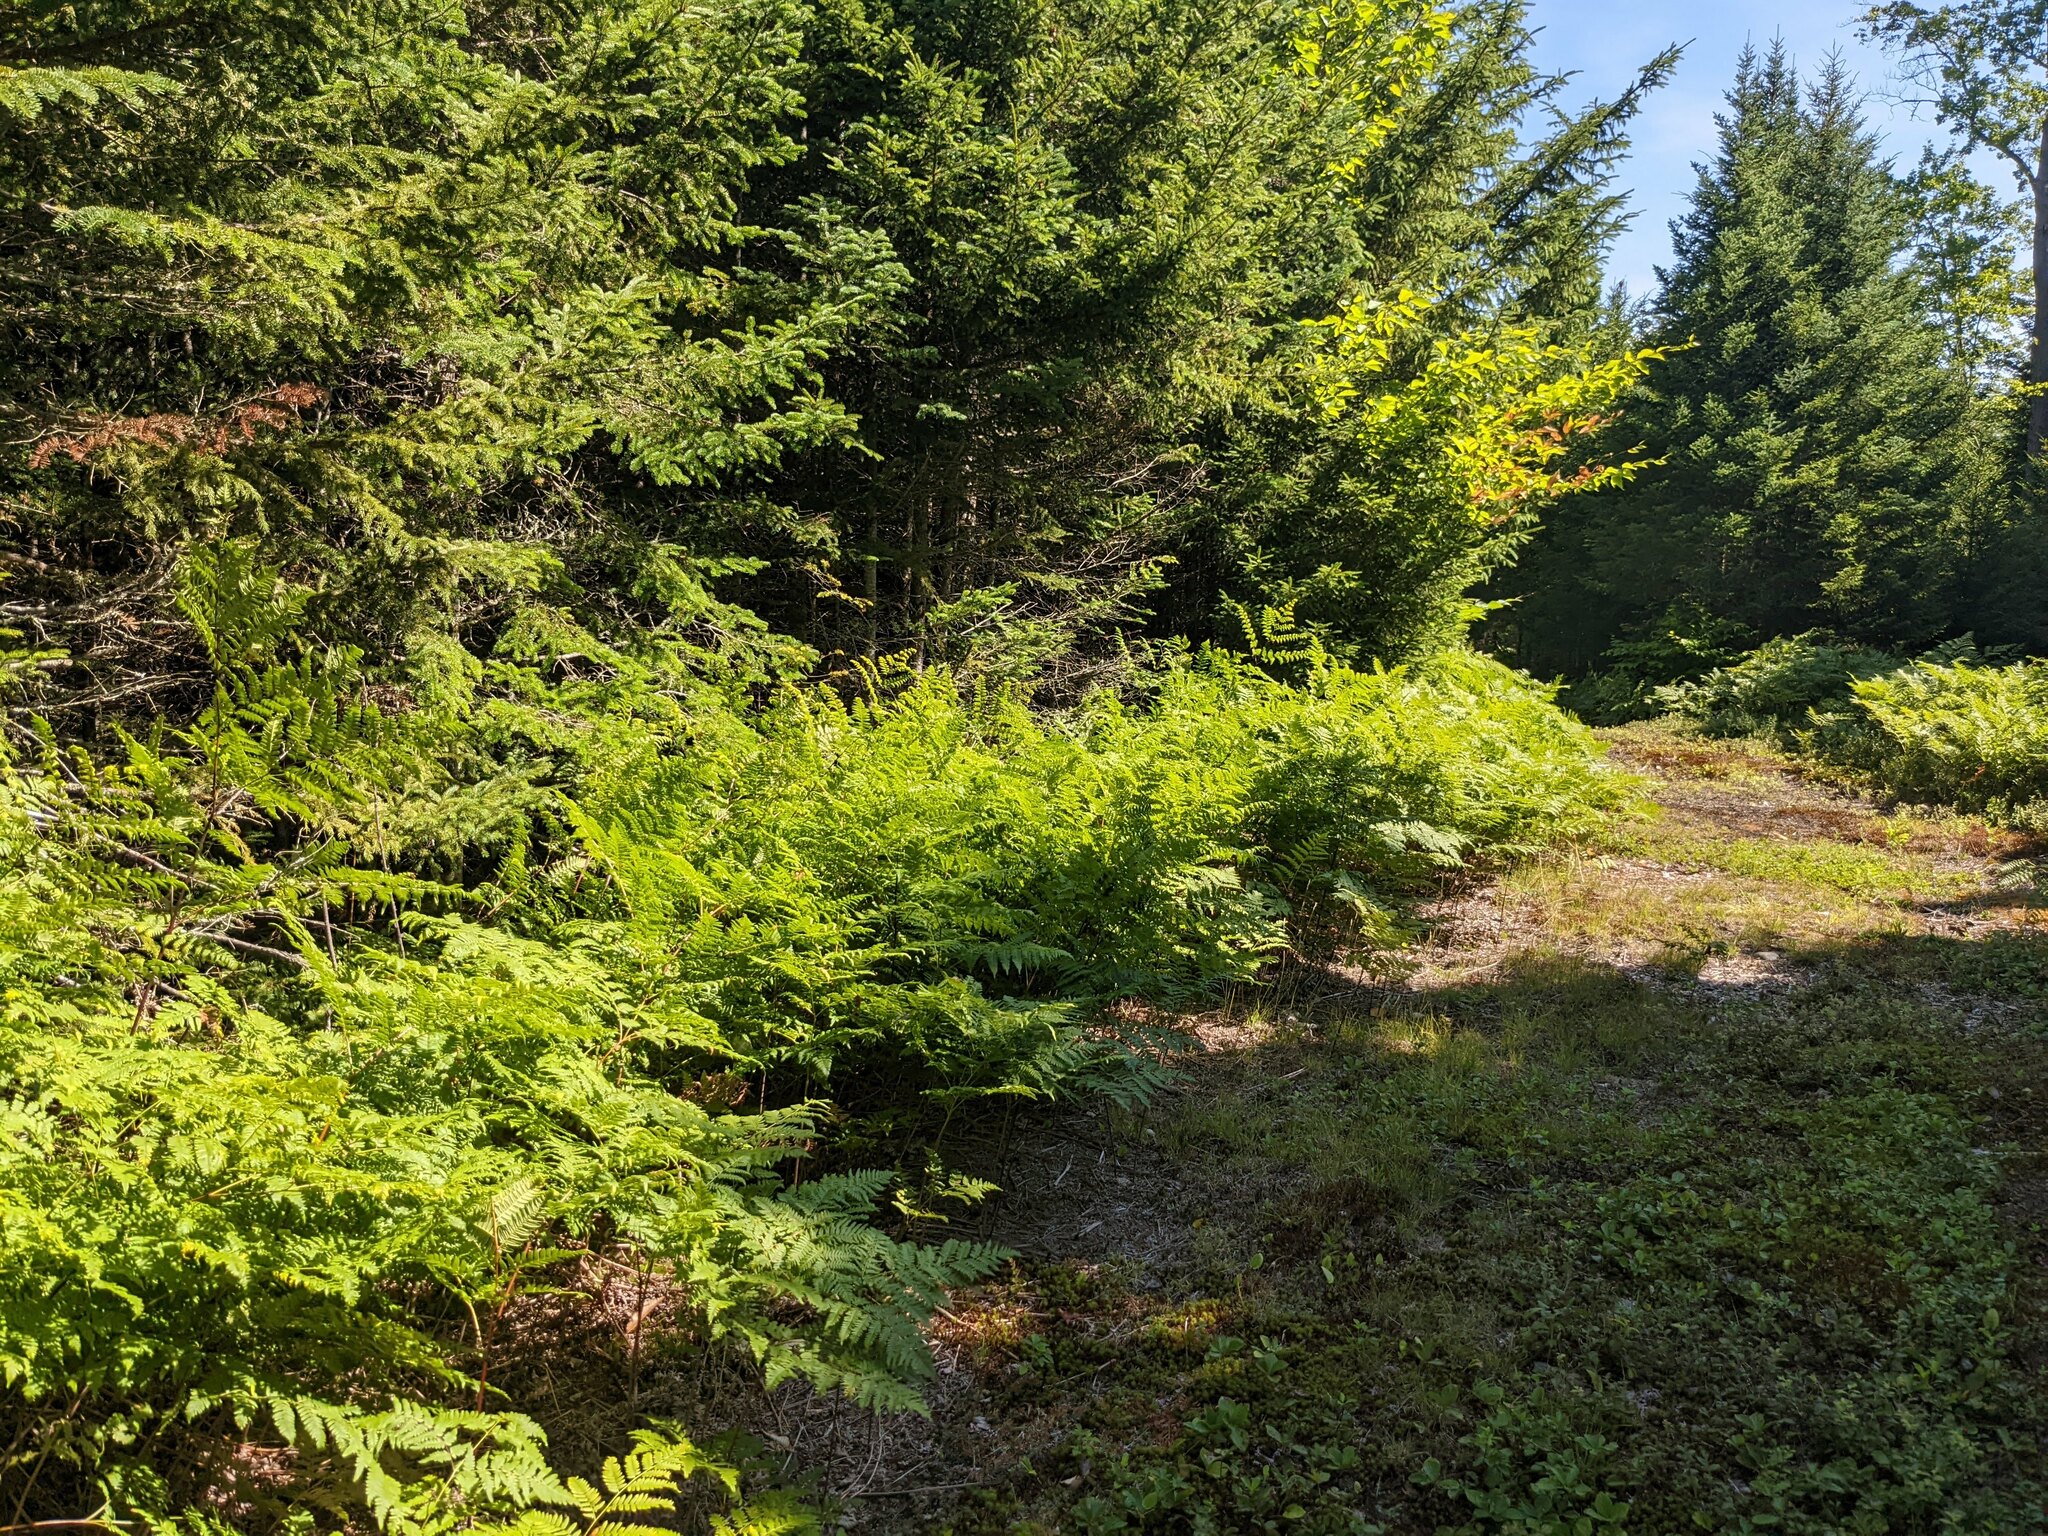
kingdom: Plantae
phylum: Tracheophyta
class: Polypodiopsida
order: Polypodiales
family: Dennstaedtiaceae
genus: Pteridium
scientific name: Pteridium aquilinum
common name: Bracken
